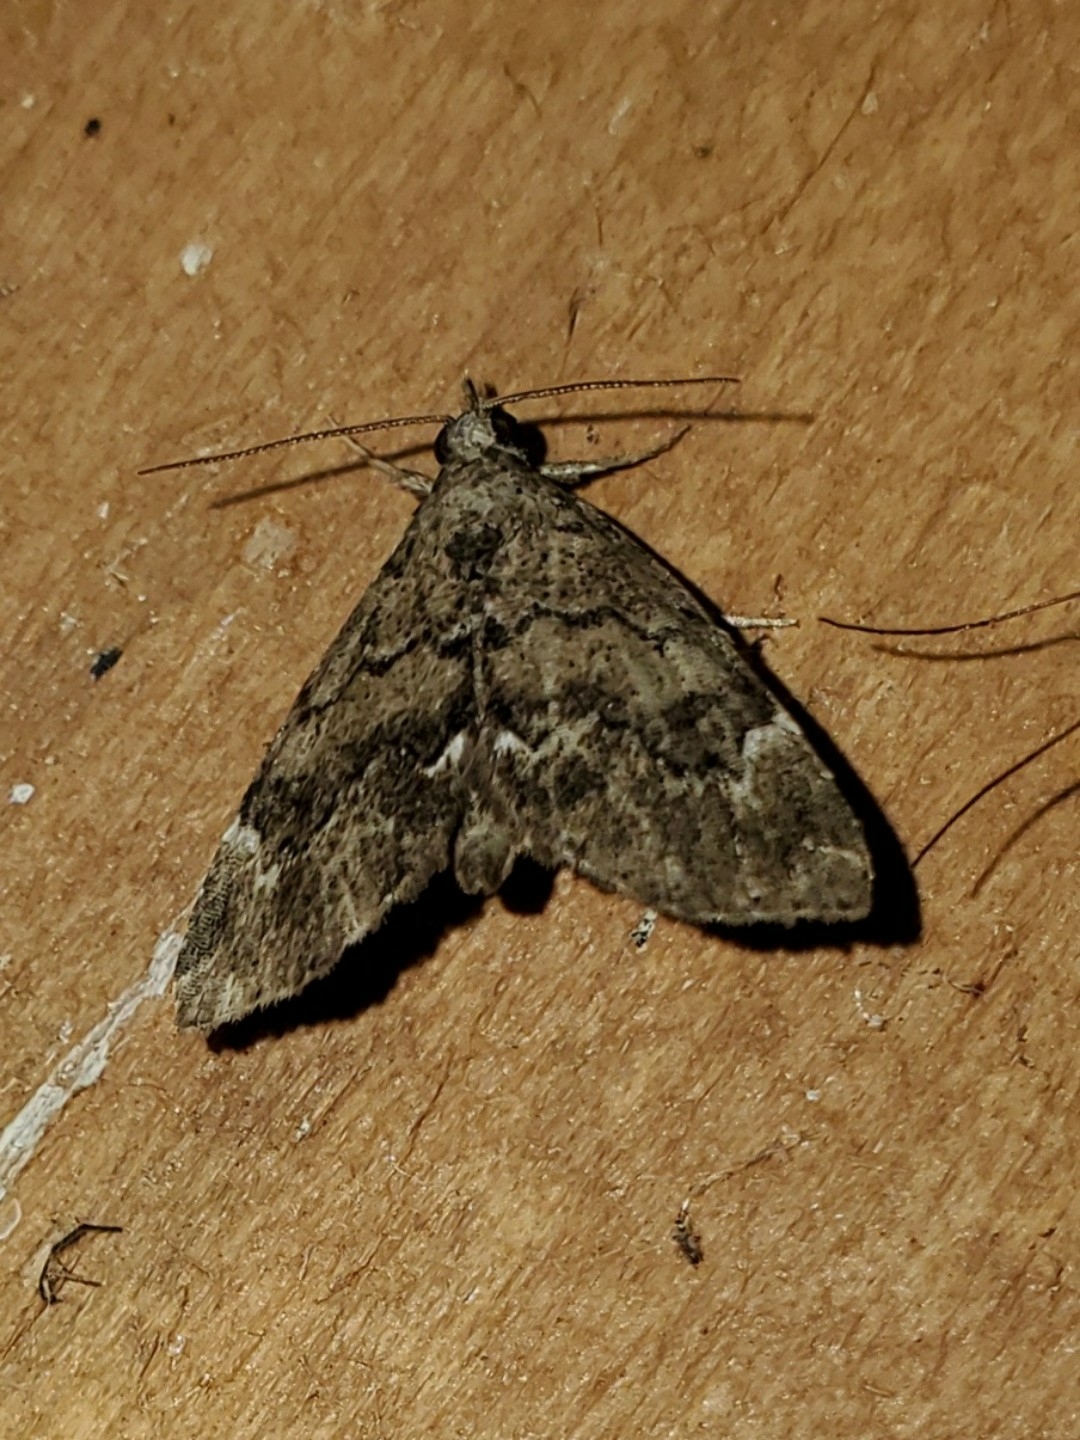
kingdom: Animalia
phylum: Arthropoda
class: Insecta
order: Lepidoptera
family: Erebidae
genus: Cutina
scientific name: Cutina aluticolor
